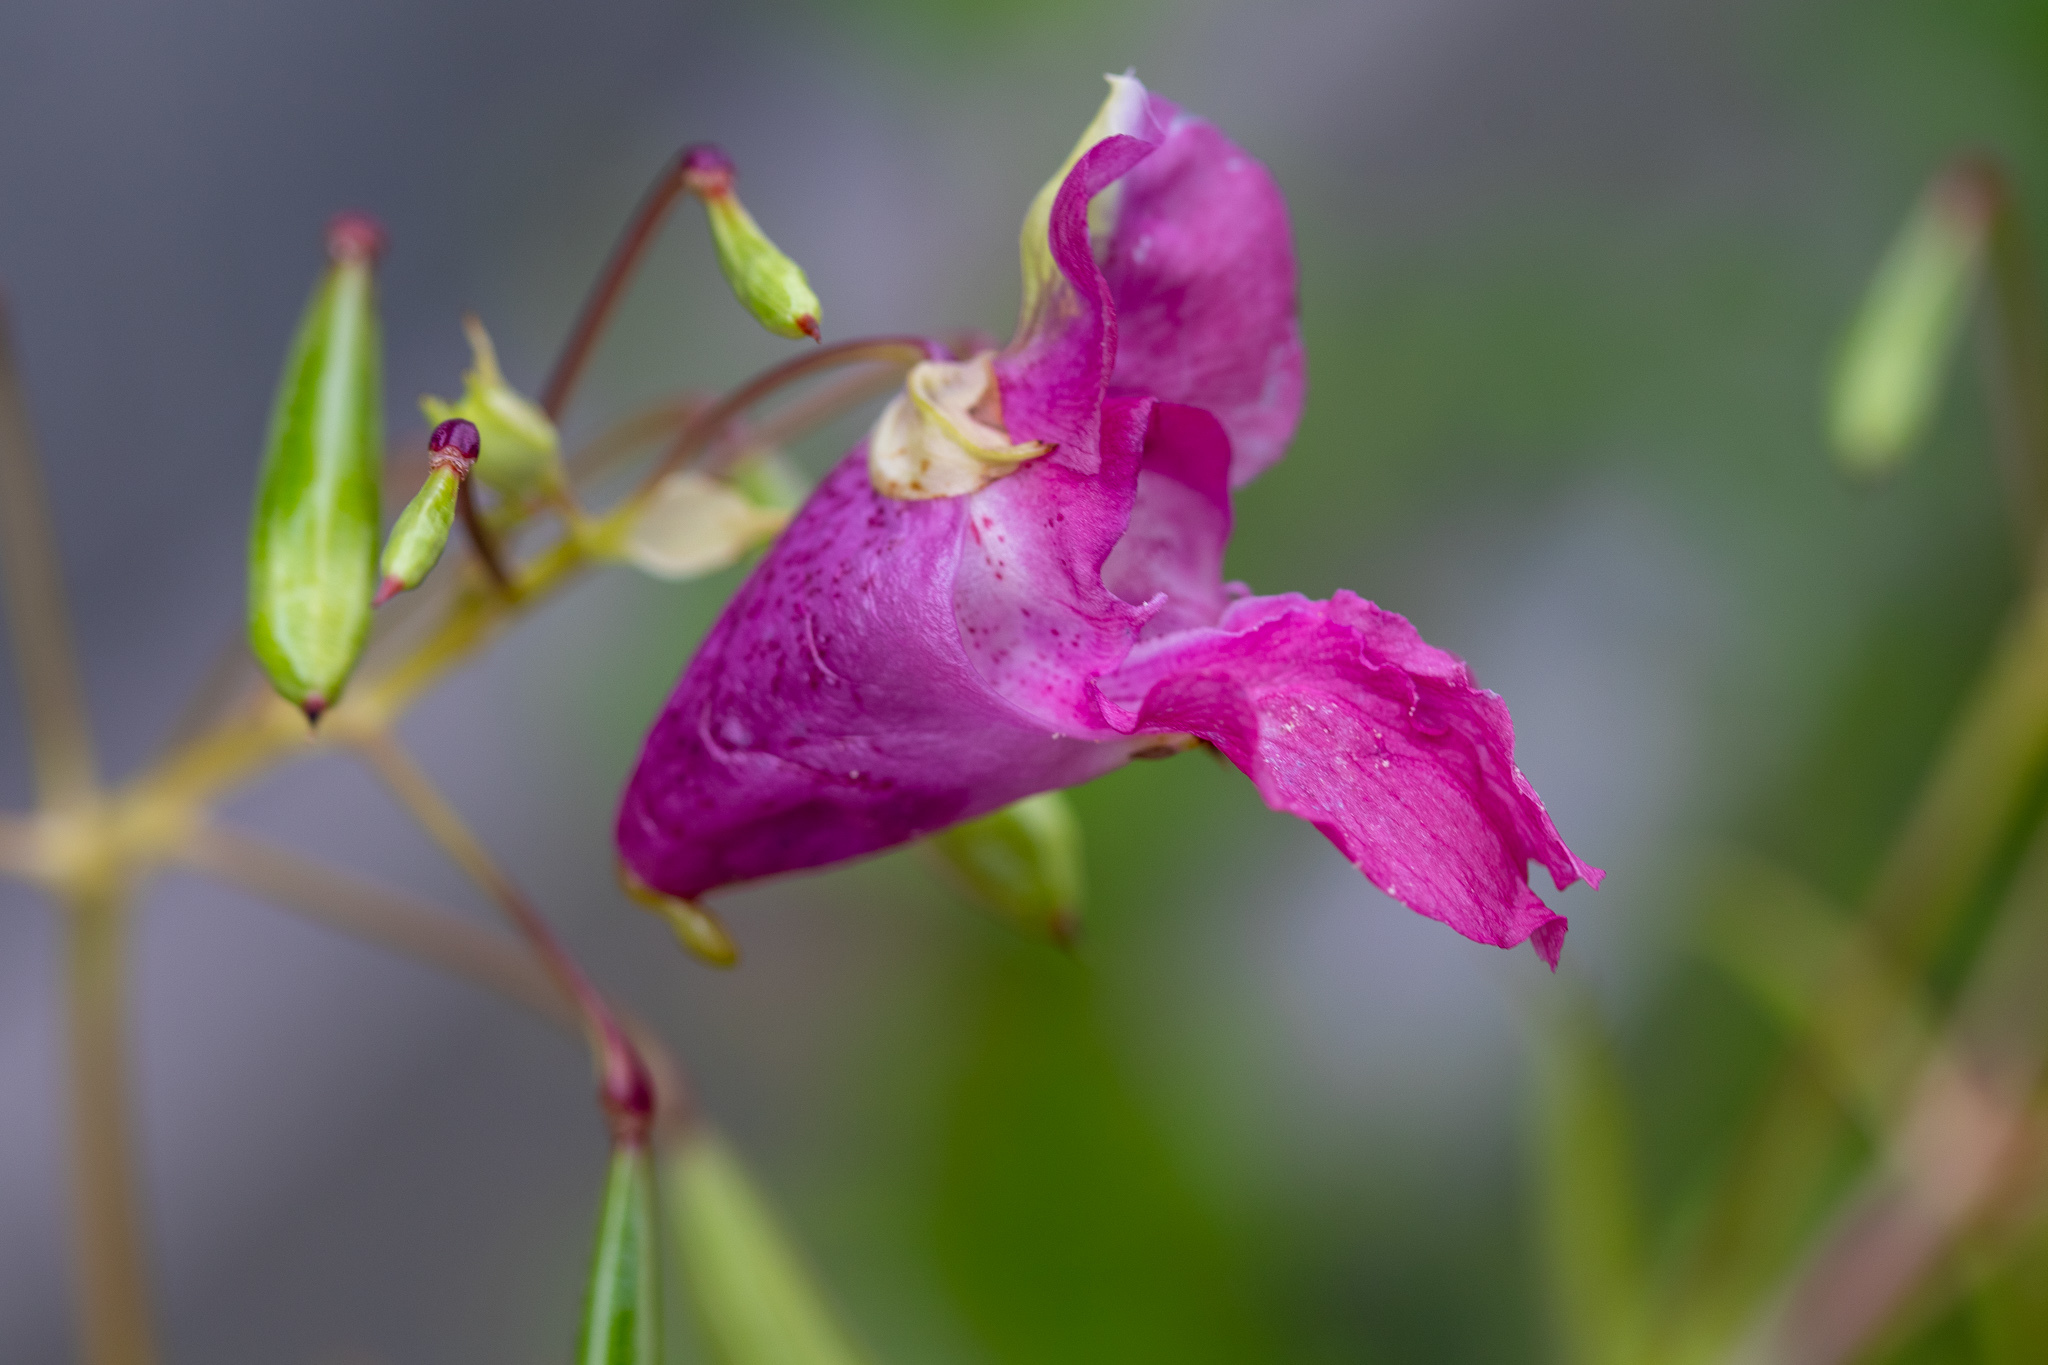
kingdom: Plantae
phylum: Tracheophyta
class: Magnoliopsida
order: Ericales
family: Balsaminaceae
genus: Impatiens
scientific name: Impatiens glandulifera
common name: Himalayan balsam
